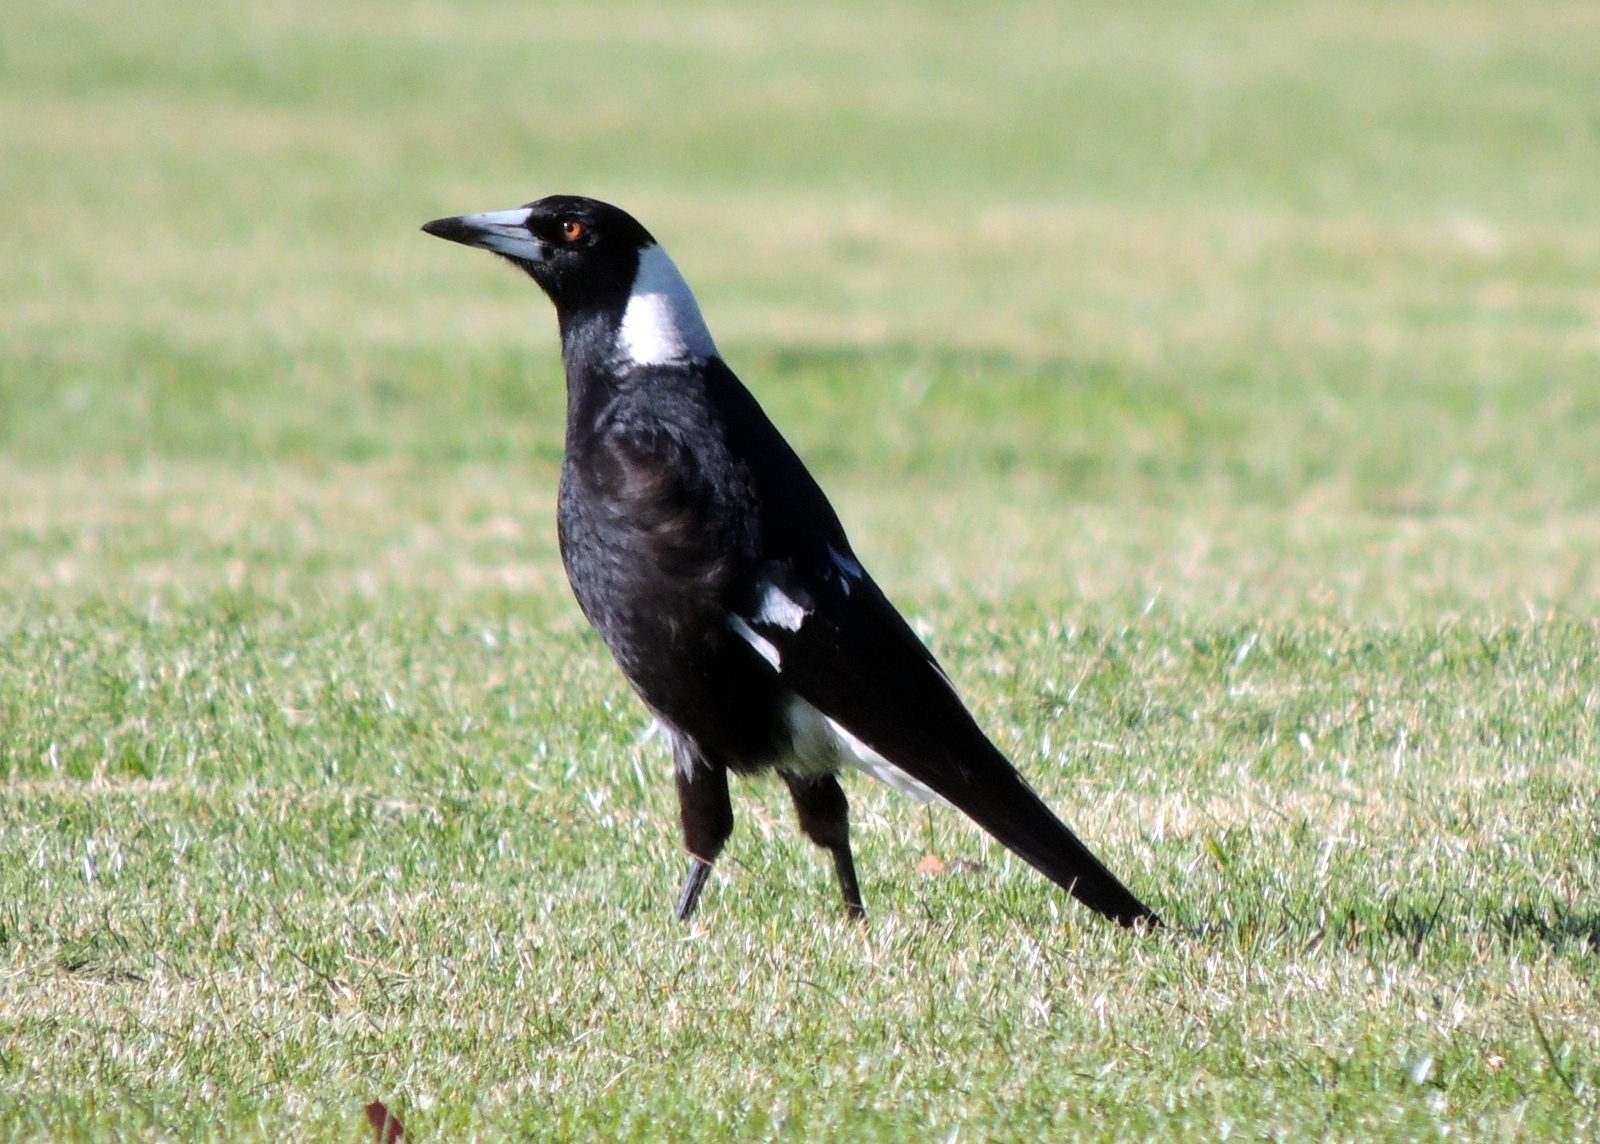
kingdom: Animalia
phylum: Chordata
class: Aves
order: Passeriformes
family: Cracticidae
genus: Gymnorhina
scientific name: Gymnorhina tibicen
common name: Australian magpie
